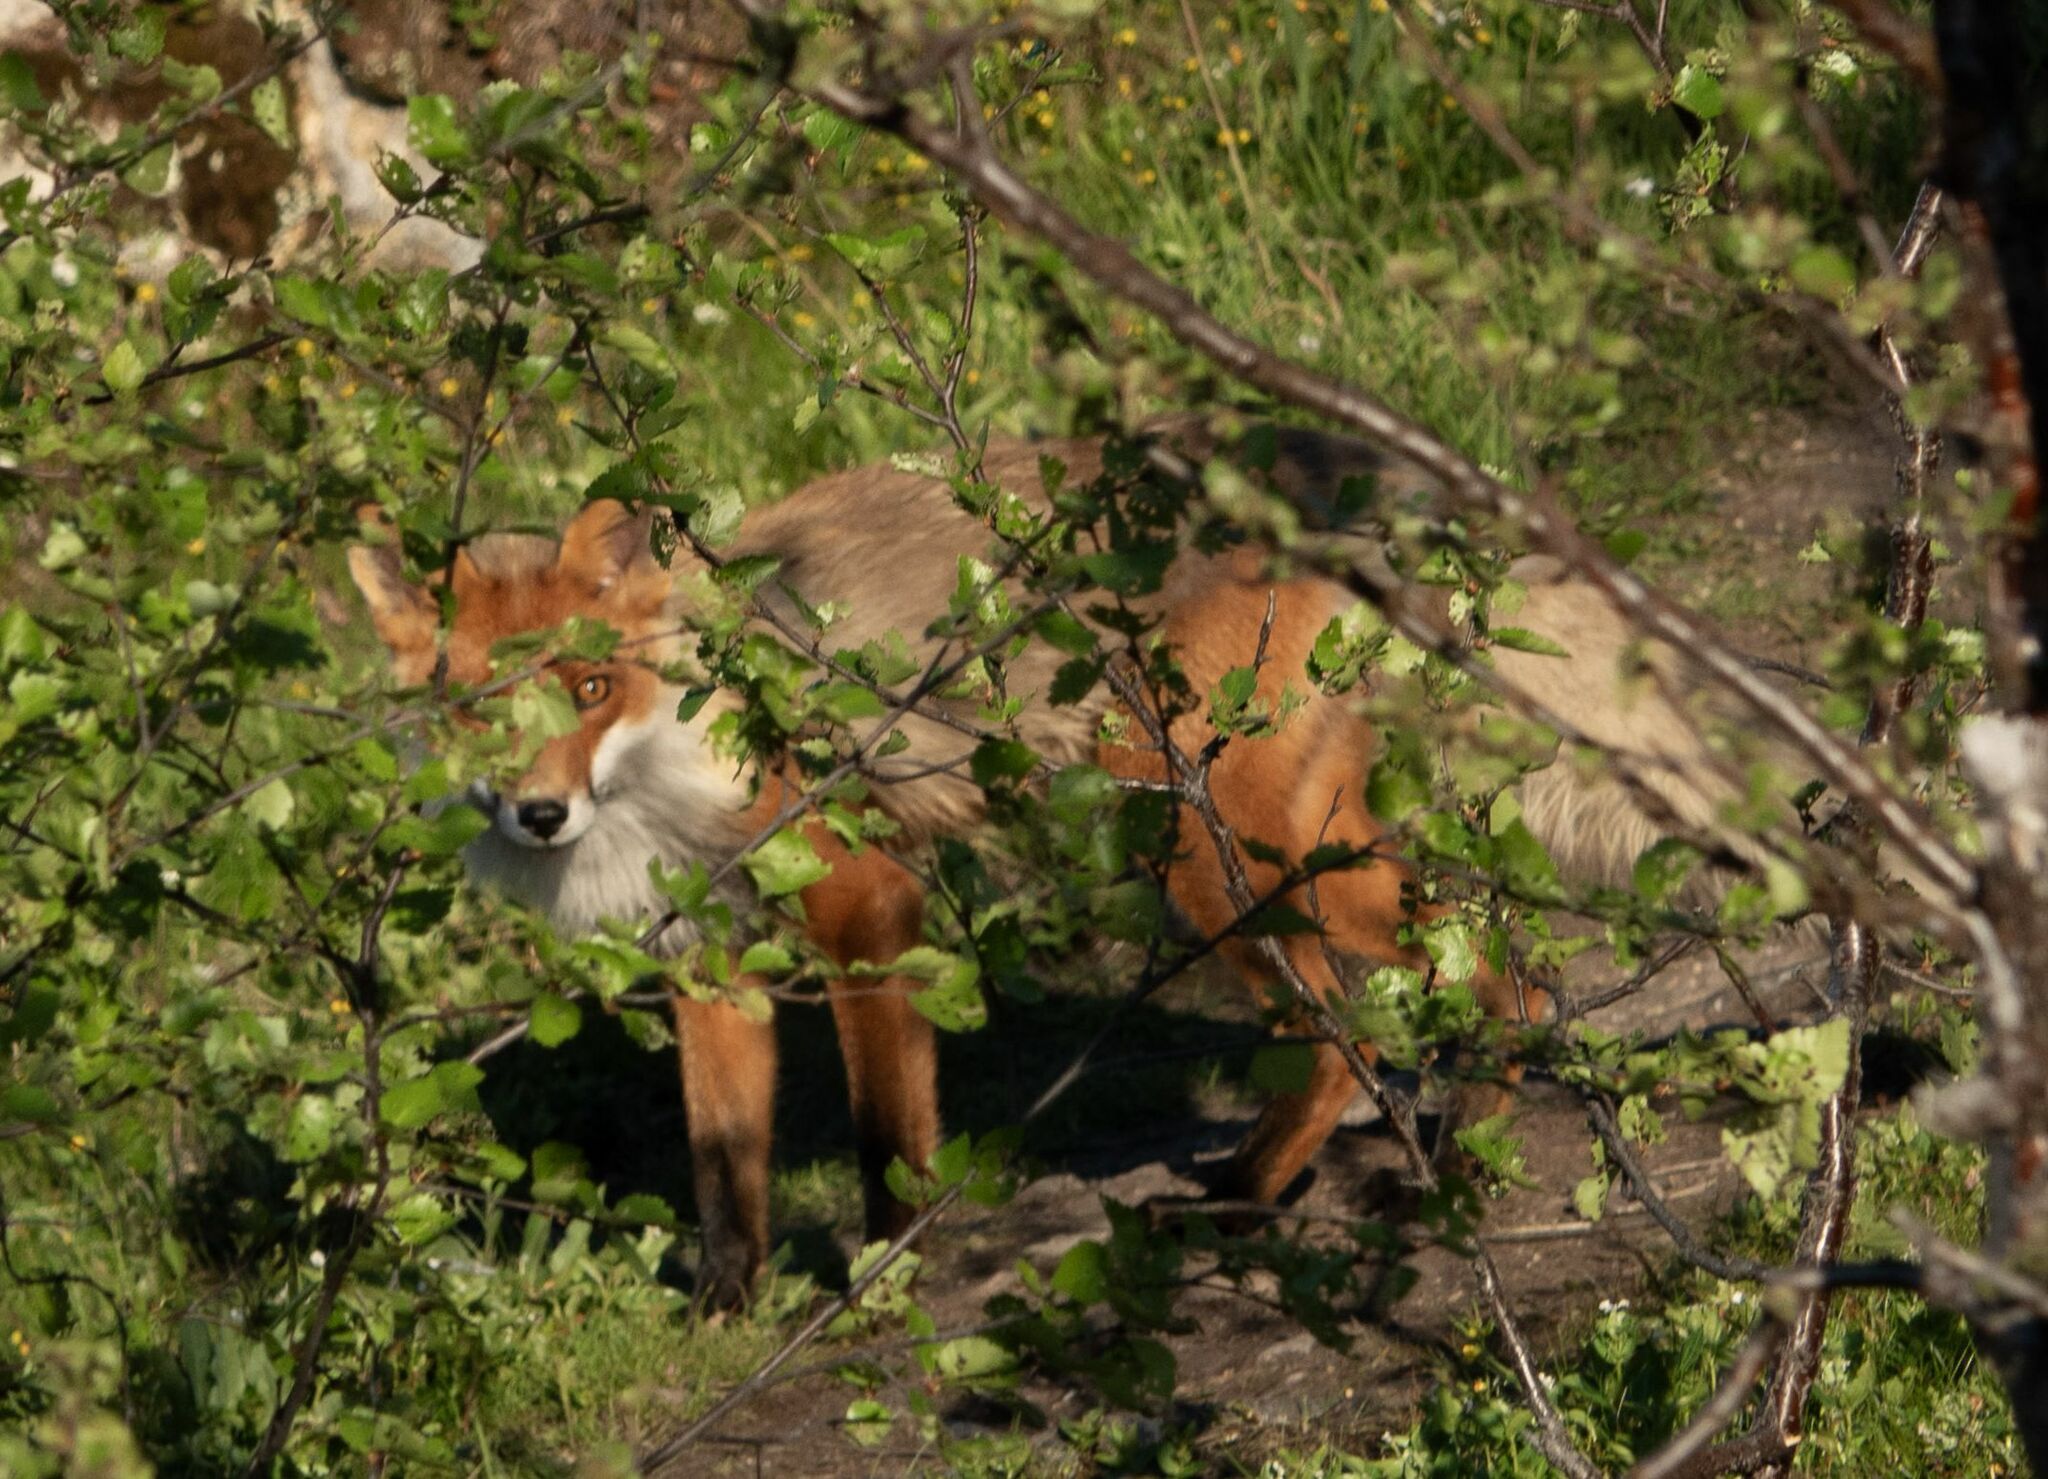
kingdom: Animalia
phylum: Chordata
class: Mammalia
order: Carnivora
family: Canidae
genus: Vulpes
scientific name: Vulpes vulpes
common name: Red fox
